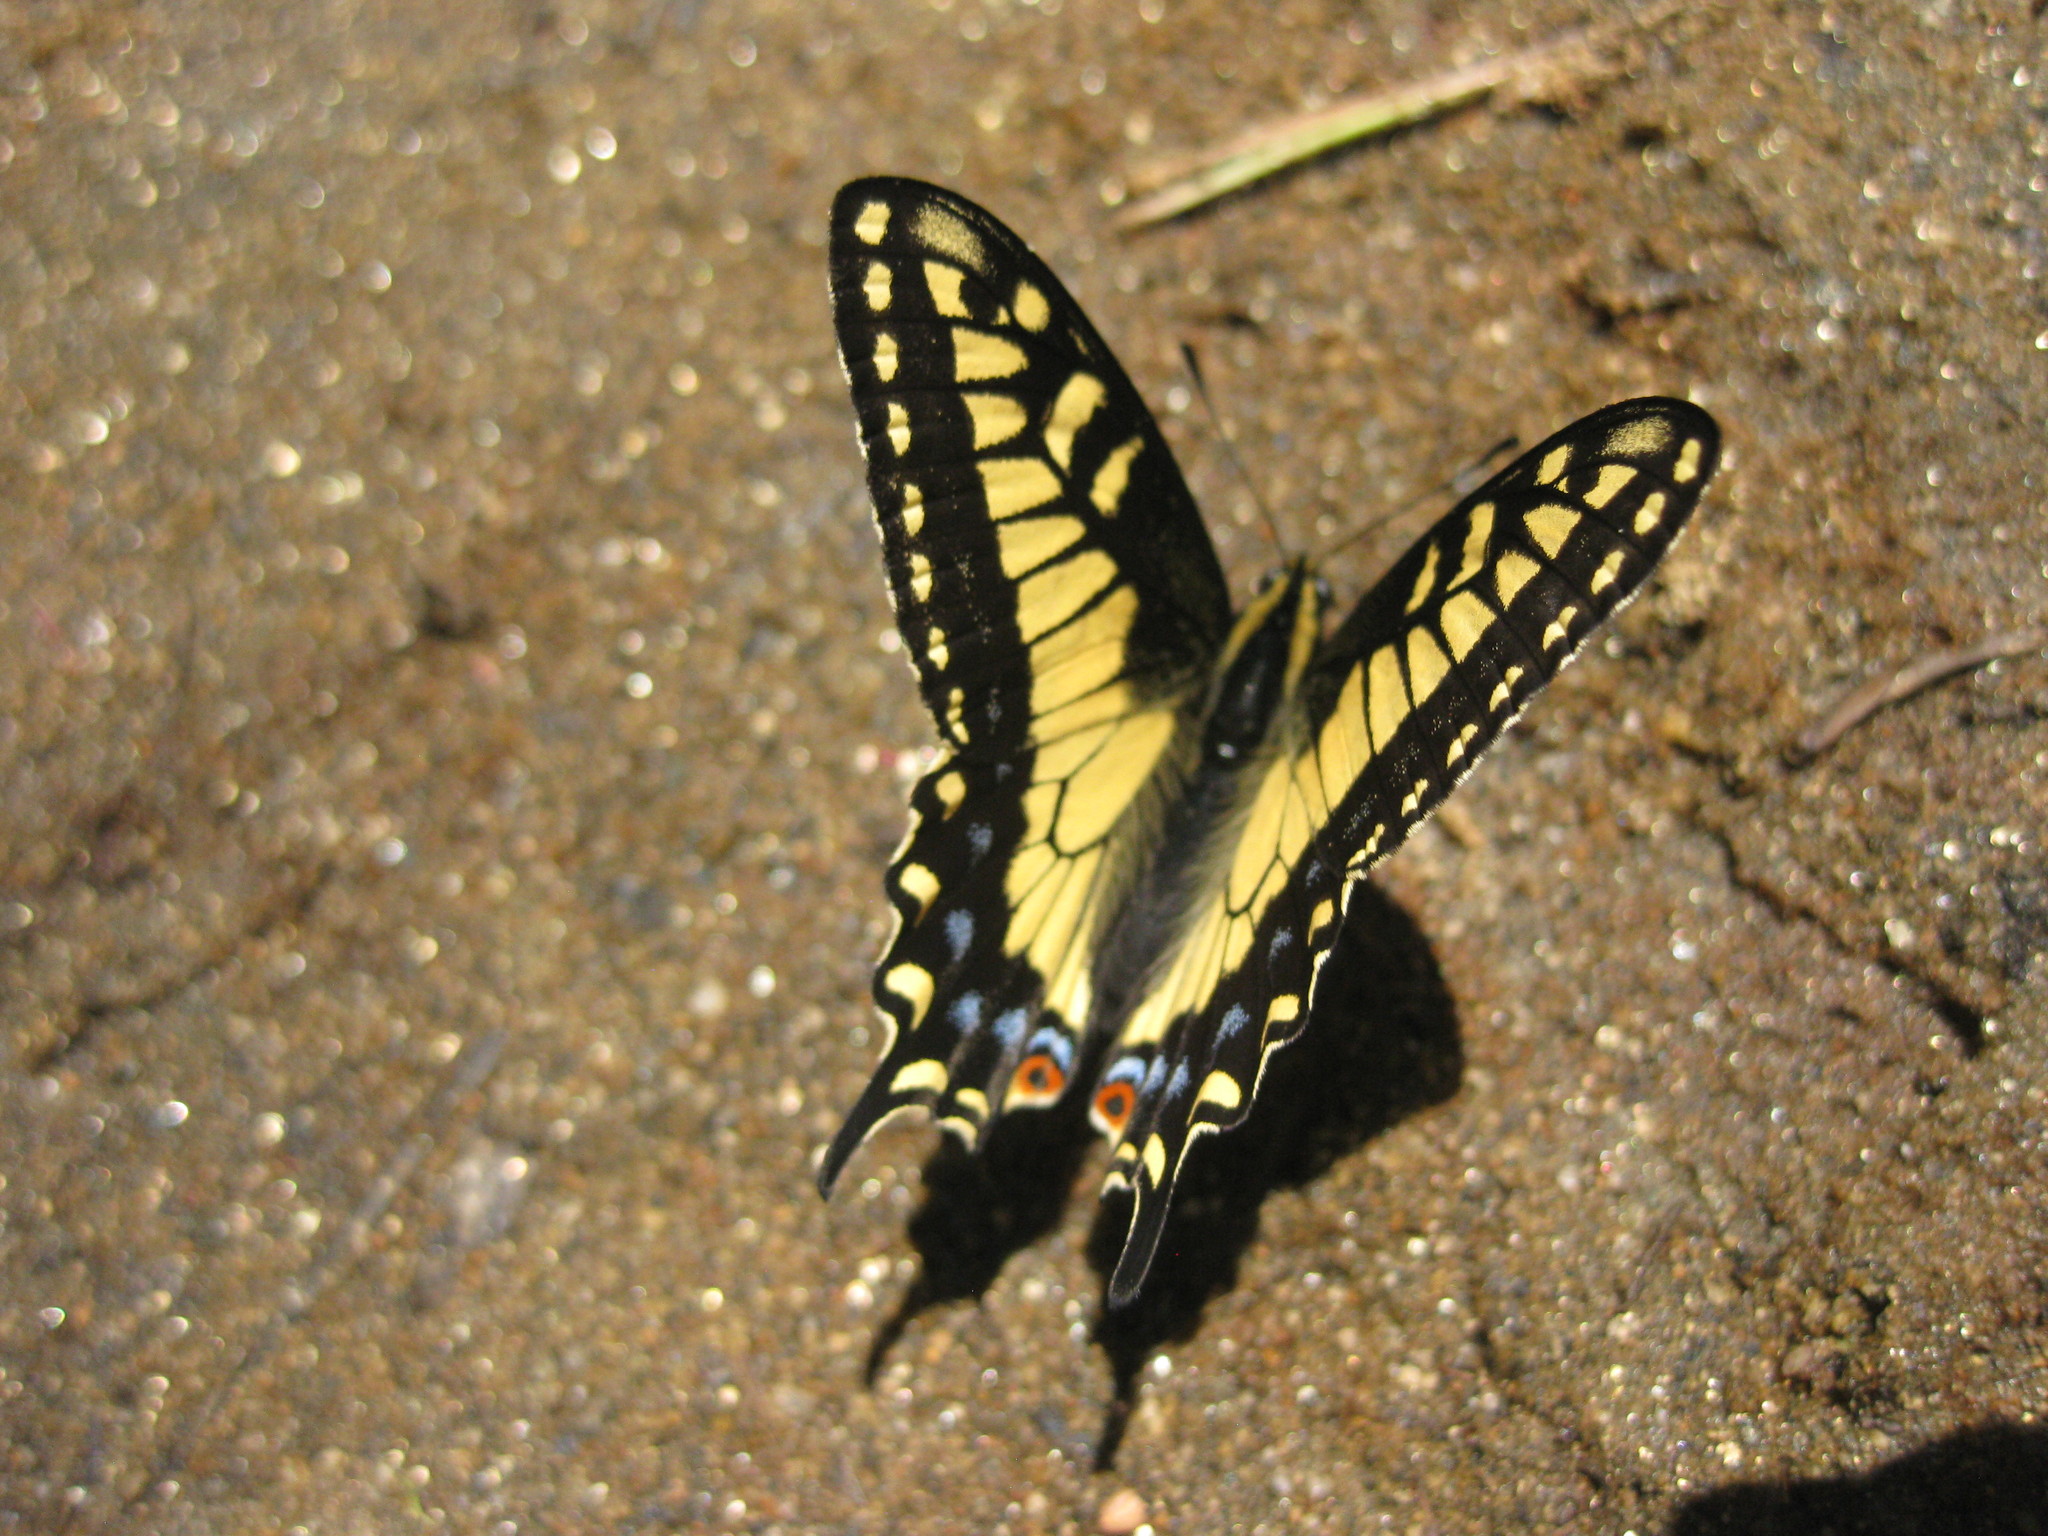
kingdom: Animalia
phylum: Arthropoda
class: Insecta
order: Lepidoptera
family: Papilionidae
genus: Papilio
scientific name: Papilio zelicaon
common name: Anise swallowtail
